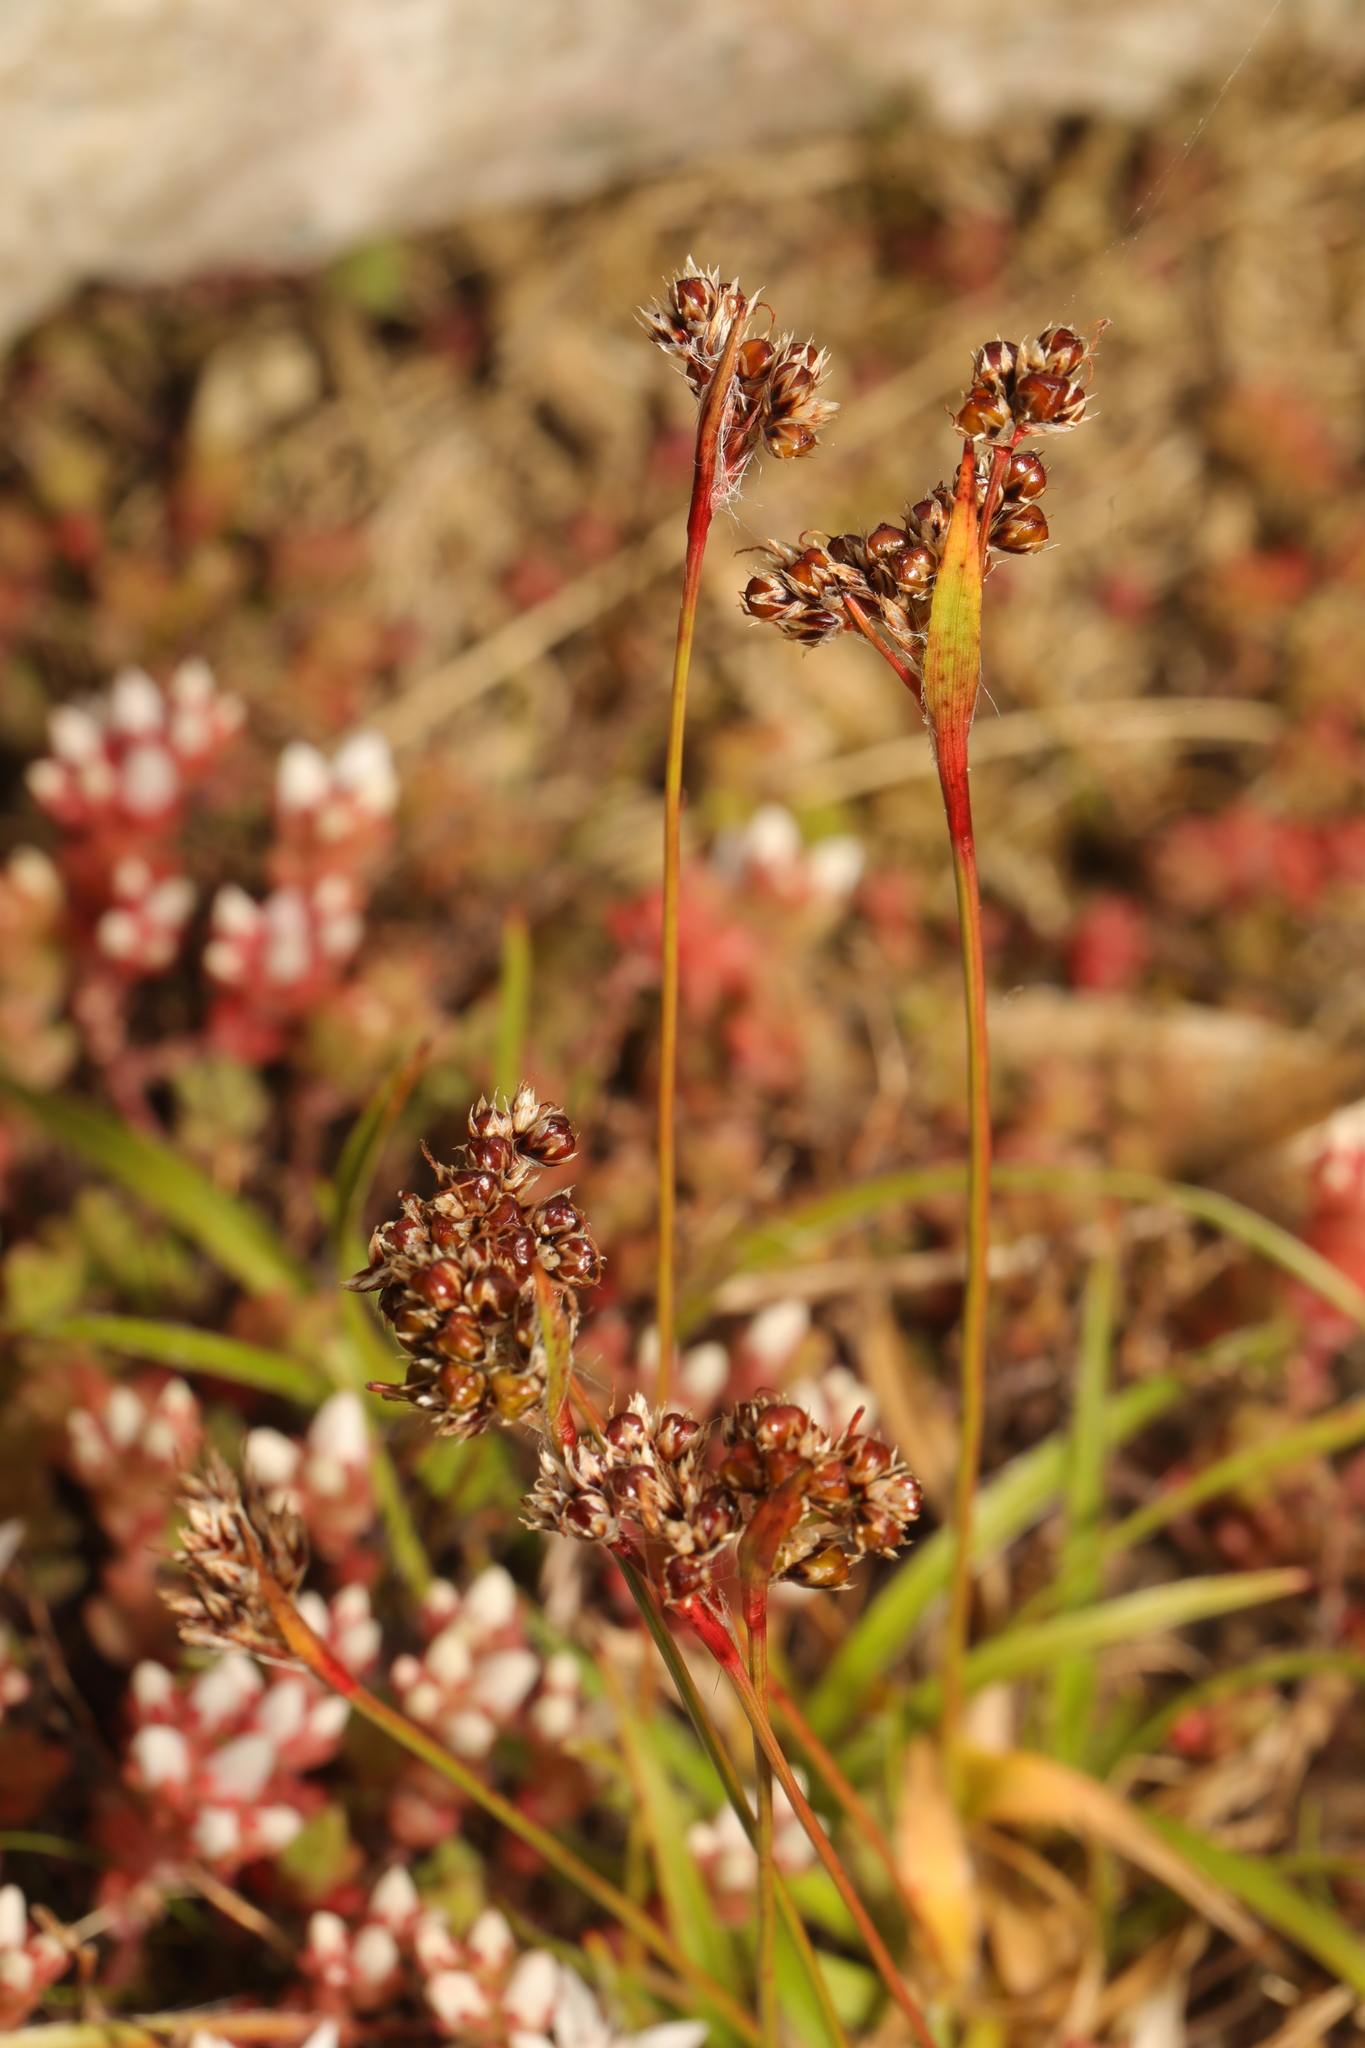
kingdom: Plantae
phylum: Tracheophyta
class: Liliopsida
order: Poales
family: Juncaceae
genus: Luzula
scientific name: Luzula multiflora
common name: Heath wood-rush
